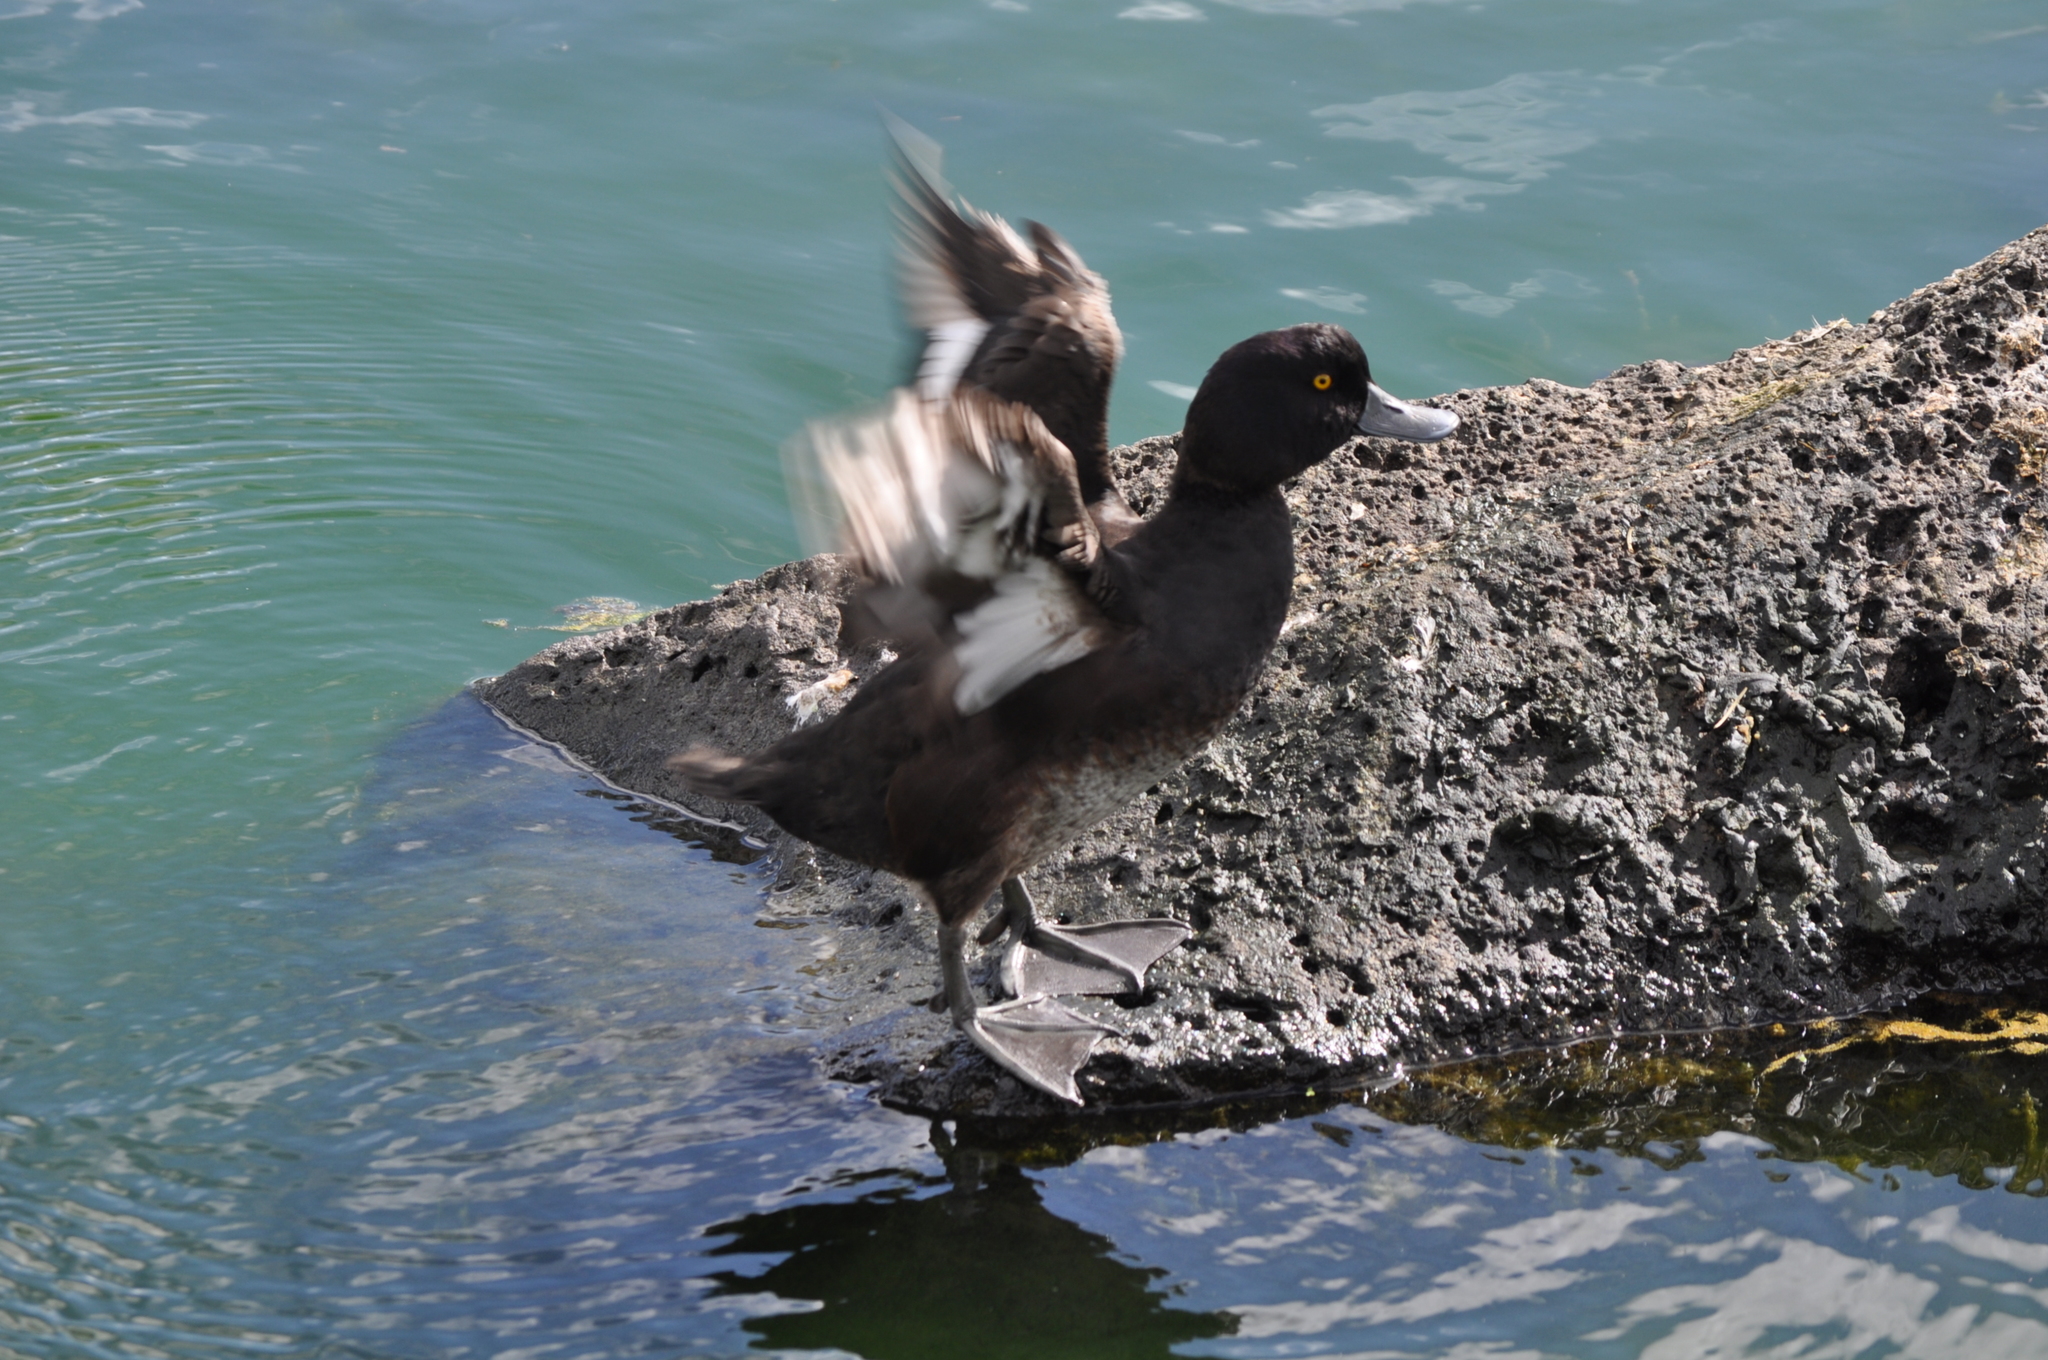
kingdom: Animalia
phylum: Chordata
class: Aves
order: Anseriformes
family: Anatidae
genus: Aythya
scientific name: Aythya novaeseelandiae
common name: New zealand scaup
